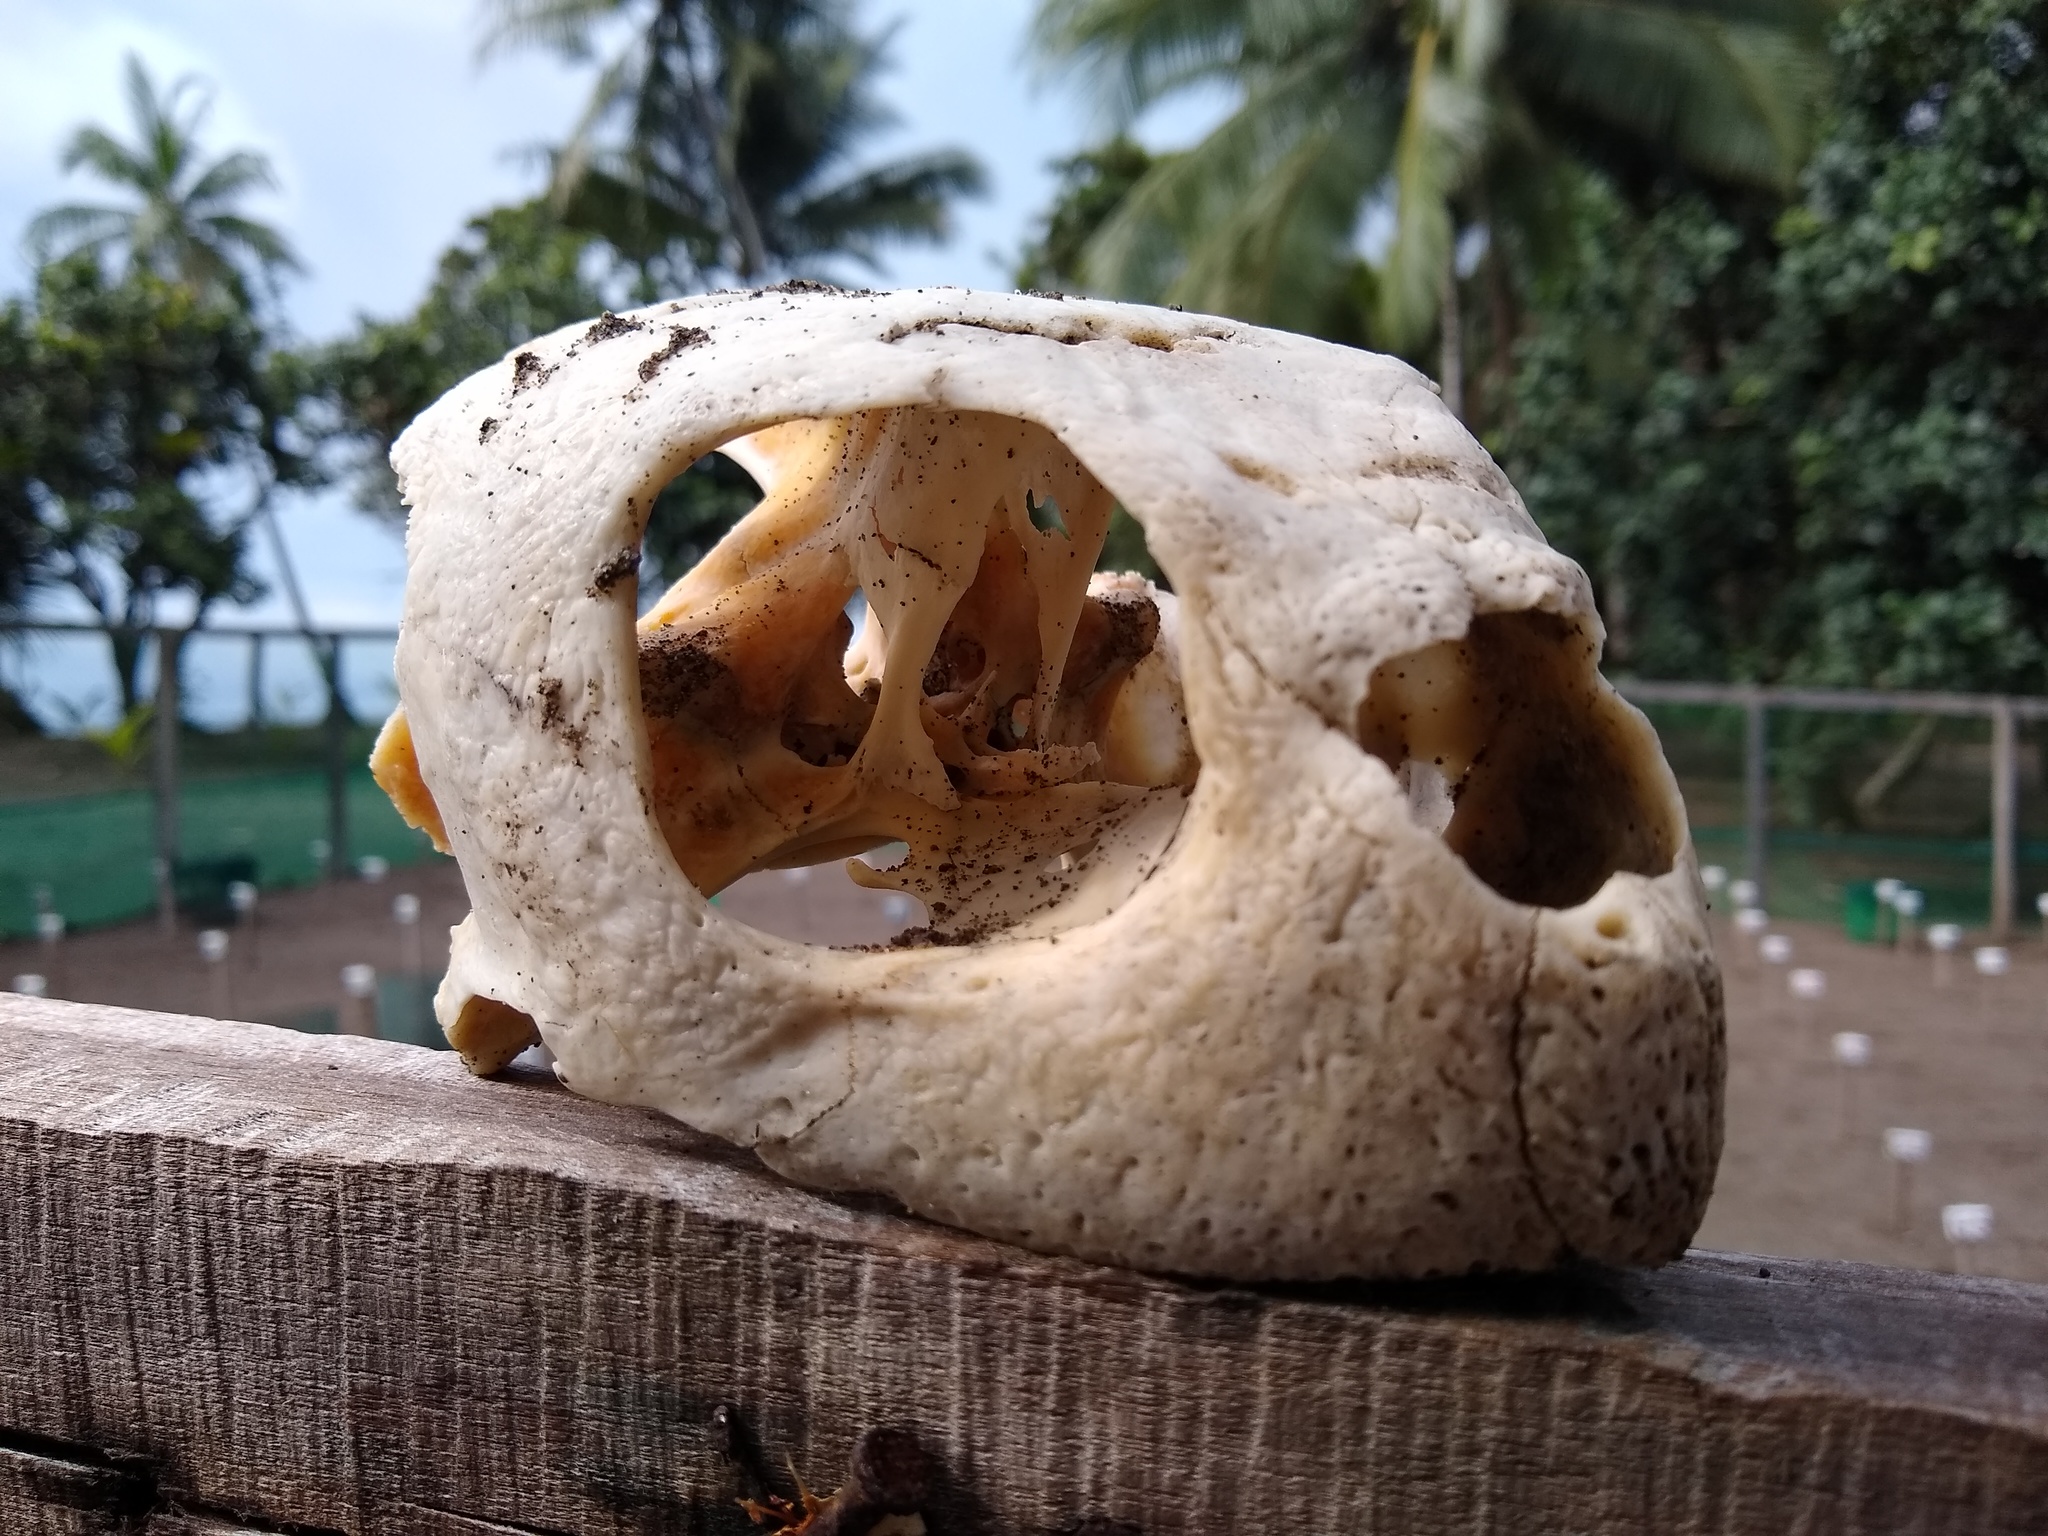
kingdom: Animalia
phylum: Chordata
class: Testudines
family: Cheloniidae
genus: Chelonia
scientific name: Chelonia mydas
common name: Green turtle
